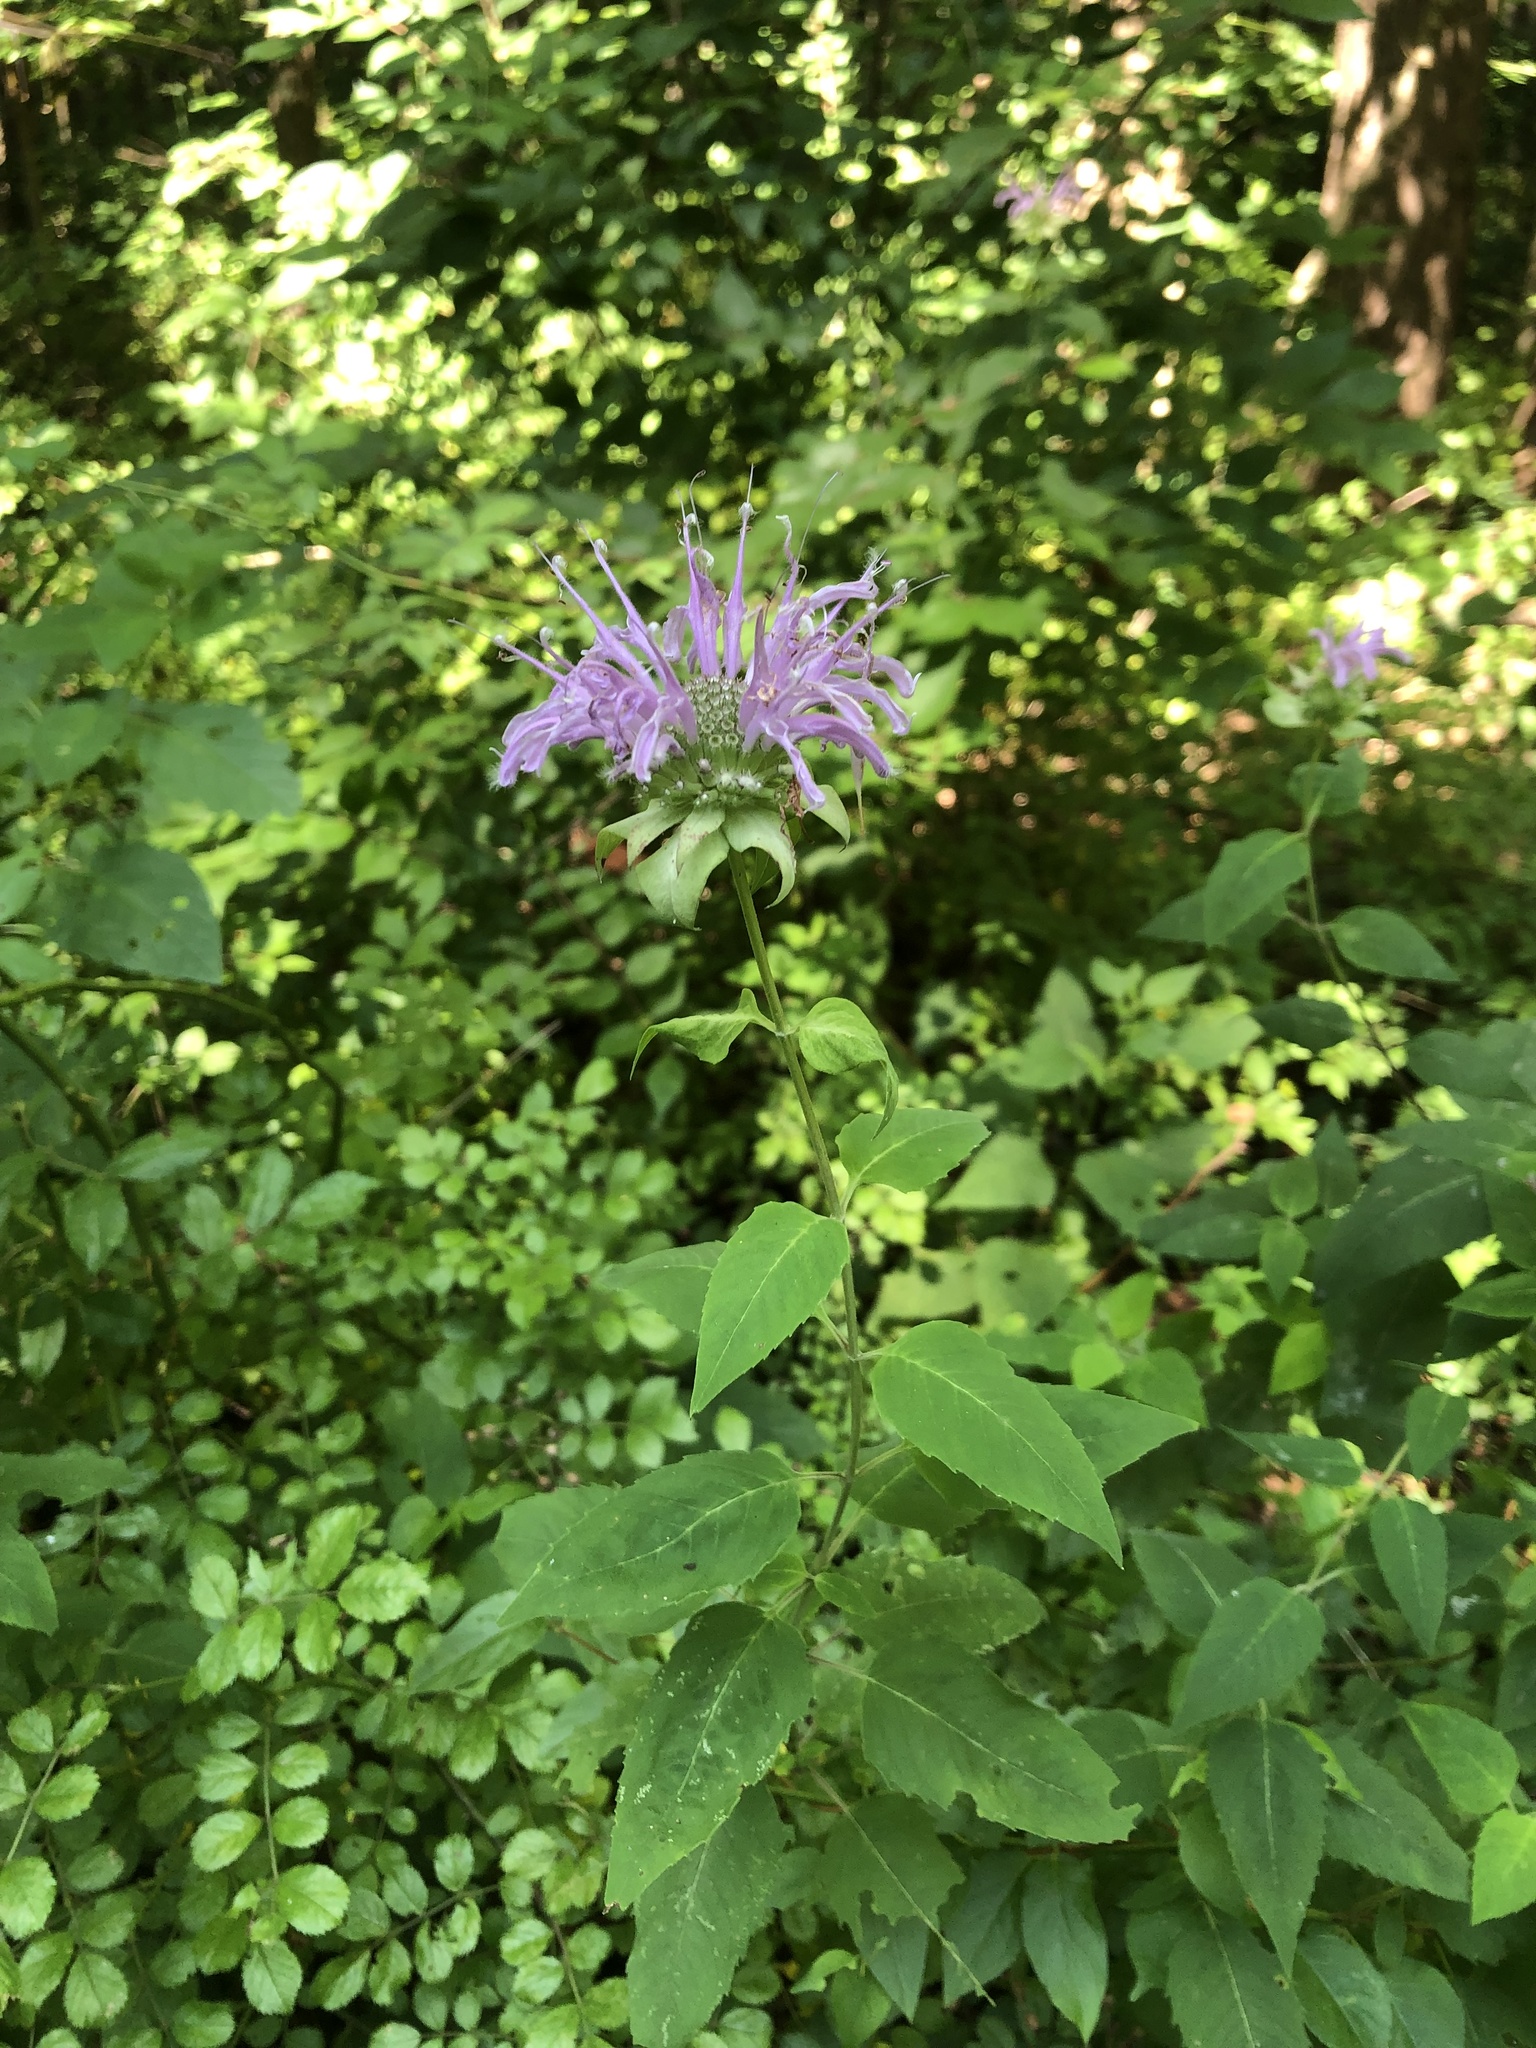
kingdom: Plantae
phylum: Tracheophyta
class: Magnoliopsida
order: Lamiales
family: Lamiaceae
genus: Monarda
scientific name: Monarda fistulosa
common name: Purple beebalm
